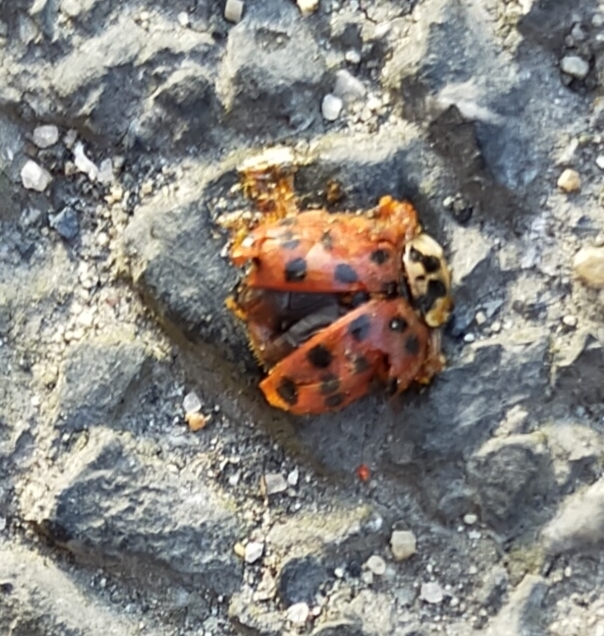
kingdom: Animalia
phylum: Arthropoda
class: Insecta
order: Coleoptera
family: Coccinellidae
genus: Harmonia
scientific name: Harmonia axyridis
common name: Harlequin ladybird
